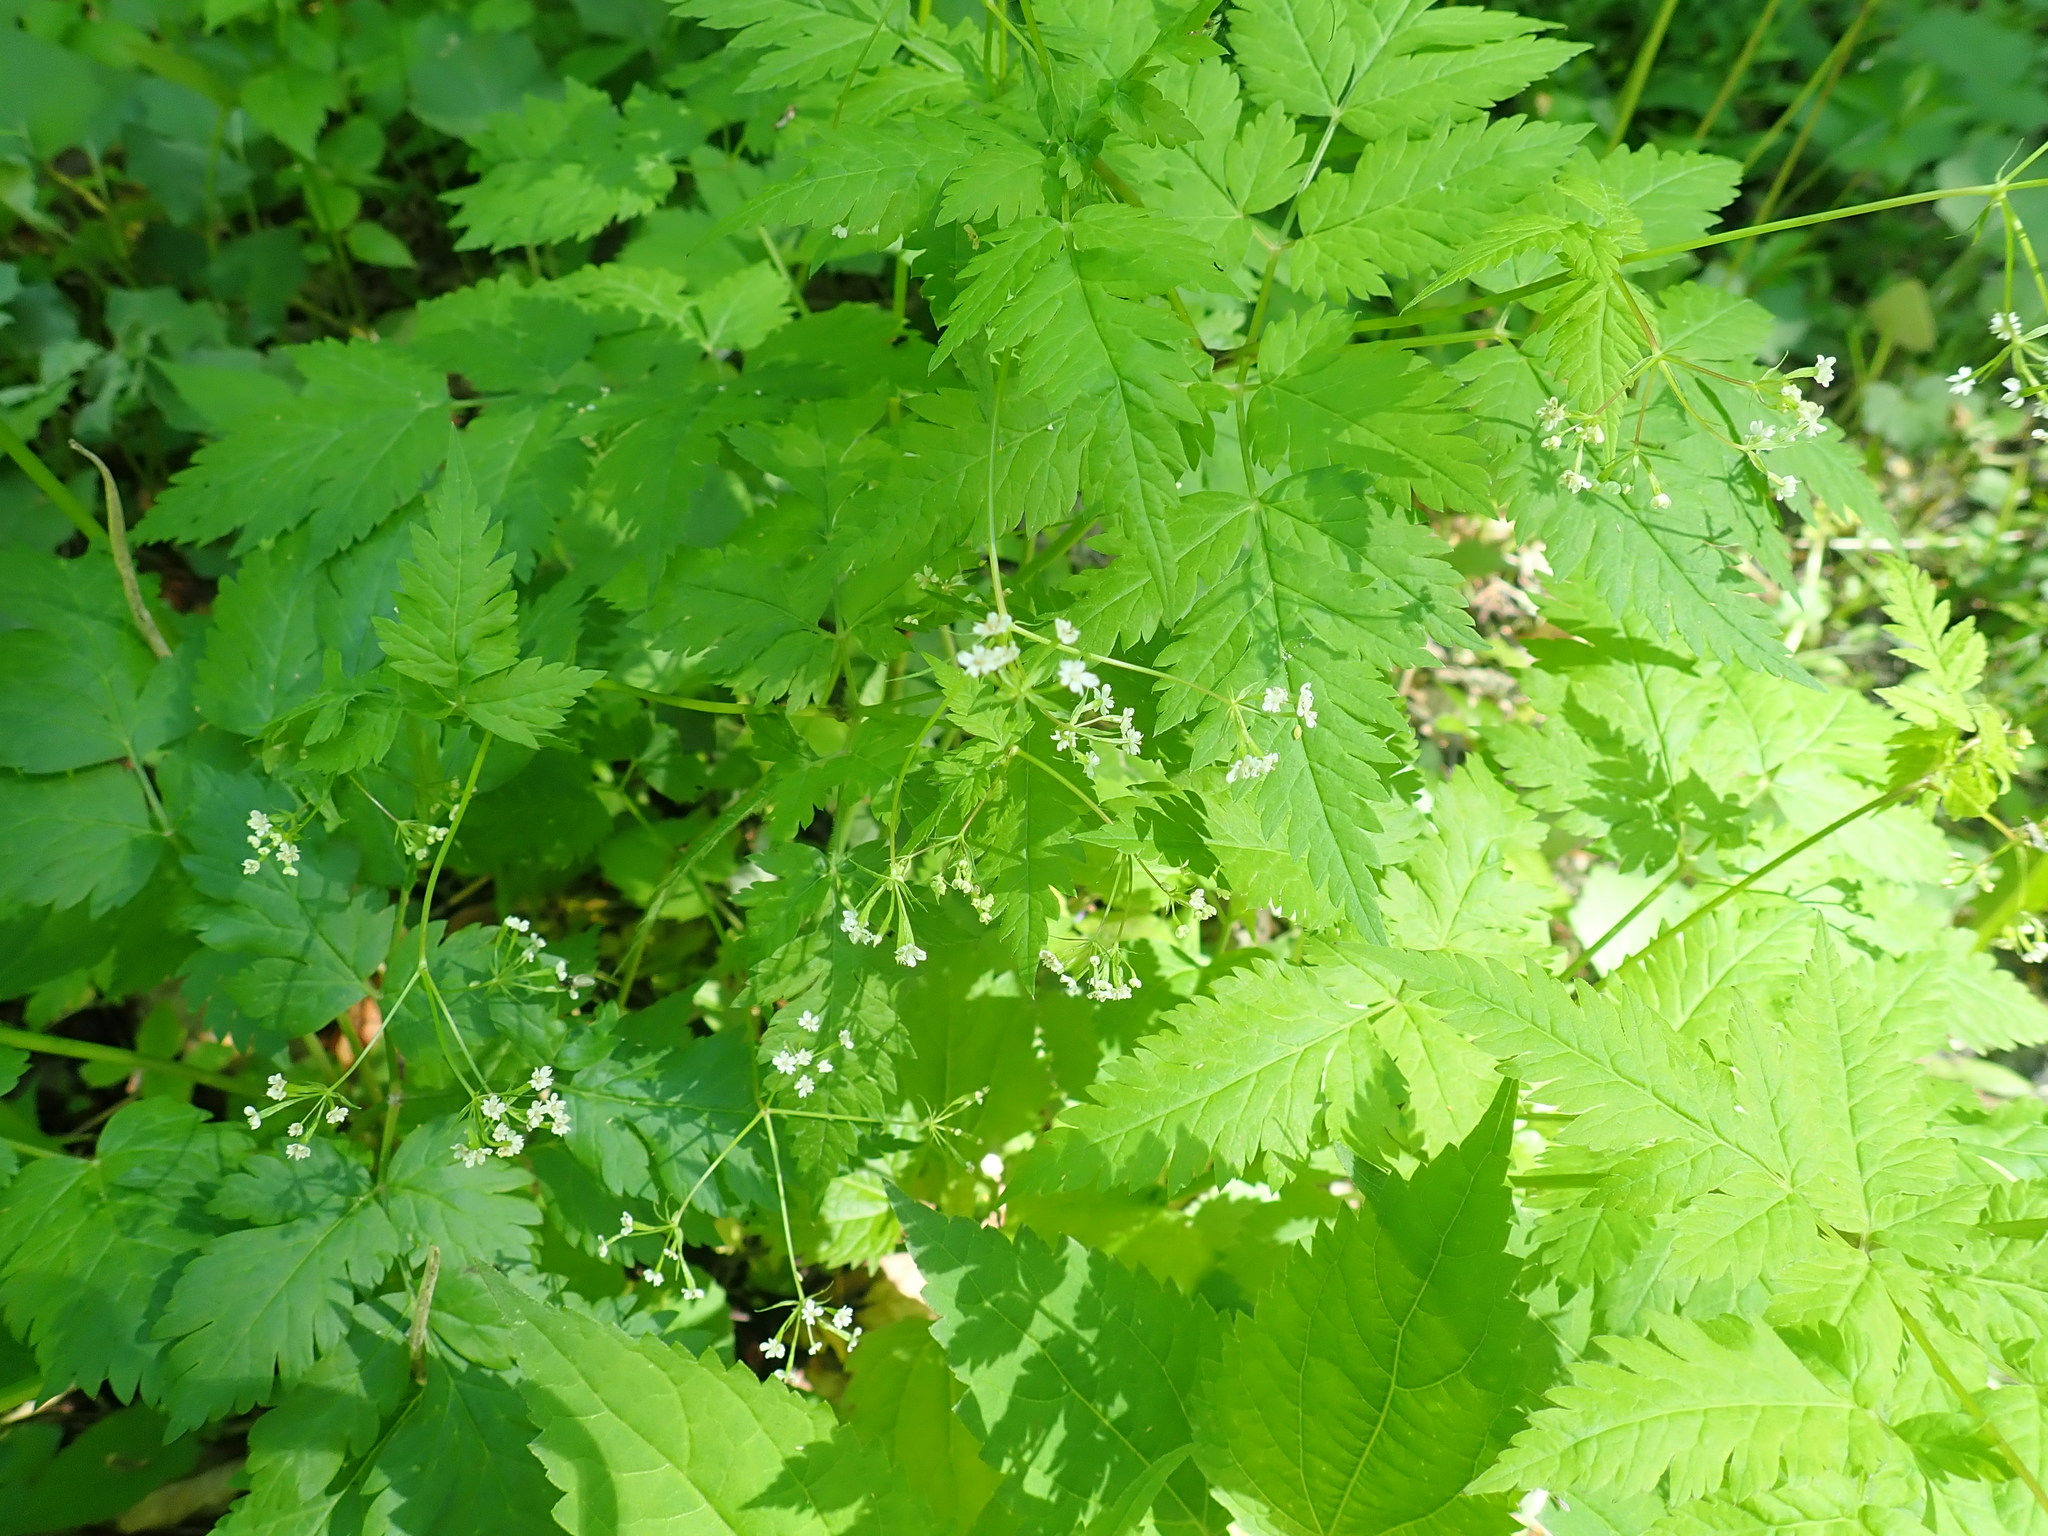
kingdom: Plantae
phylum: Tracheophyta
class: Magnoliopsida
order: Apiales
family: Apiaceae
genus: Osmorhiza
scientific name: Osmorhiza
